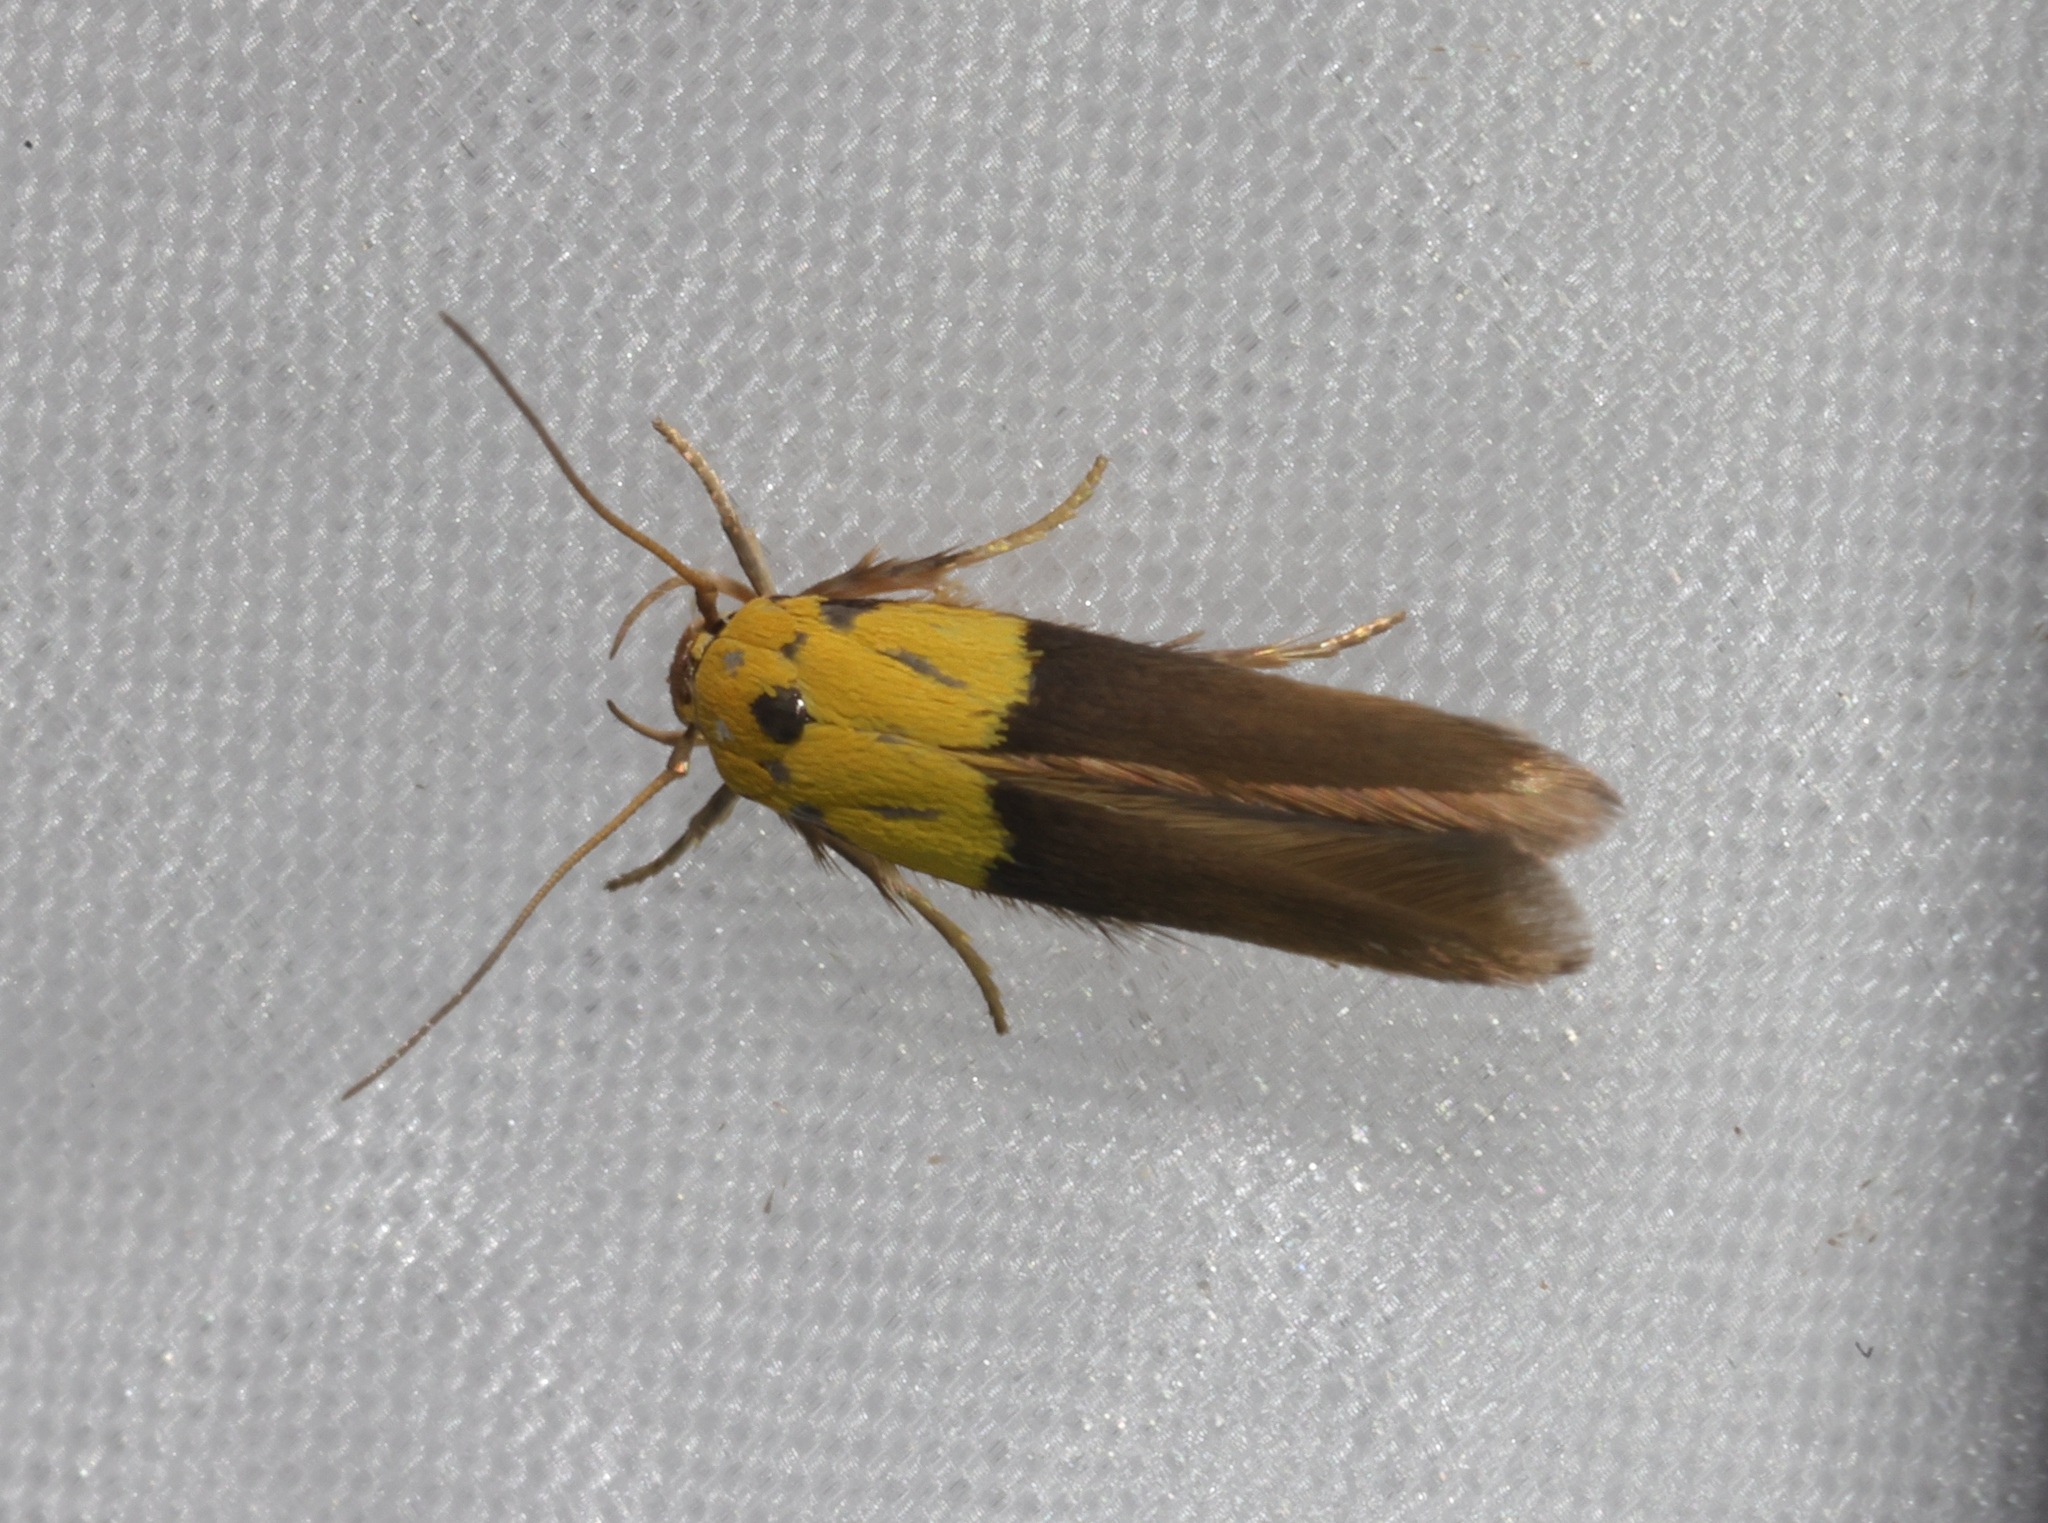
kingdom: Animalia
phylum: Arthropoda
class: Insecta
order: Lepidoptera
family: Stathmopodidae
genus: Stathmopoda
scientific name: Stathmopoda auriferella
